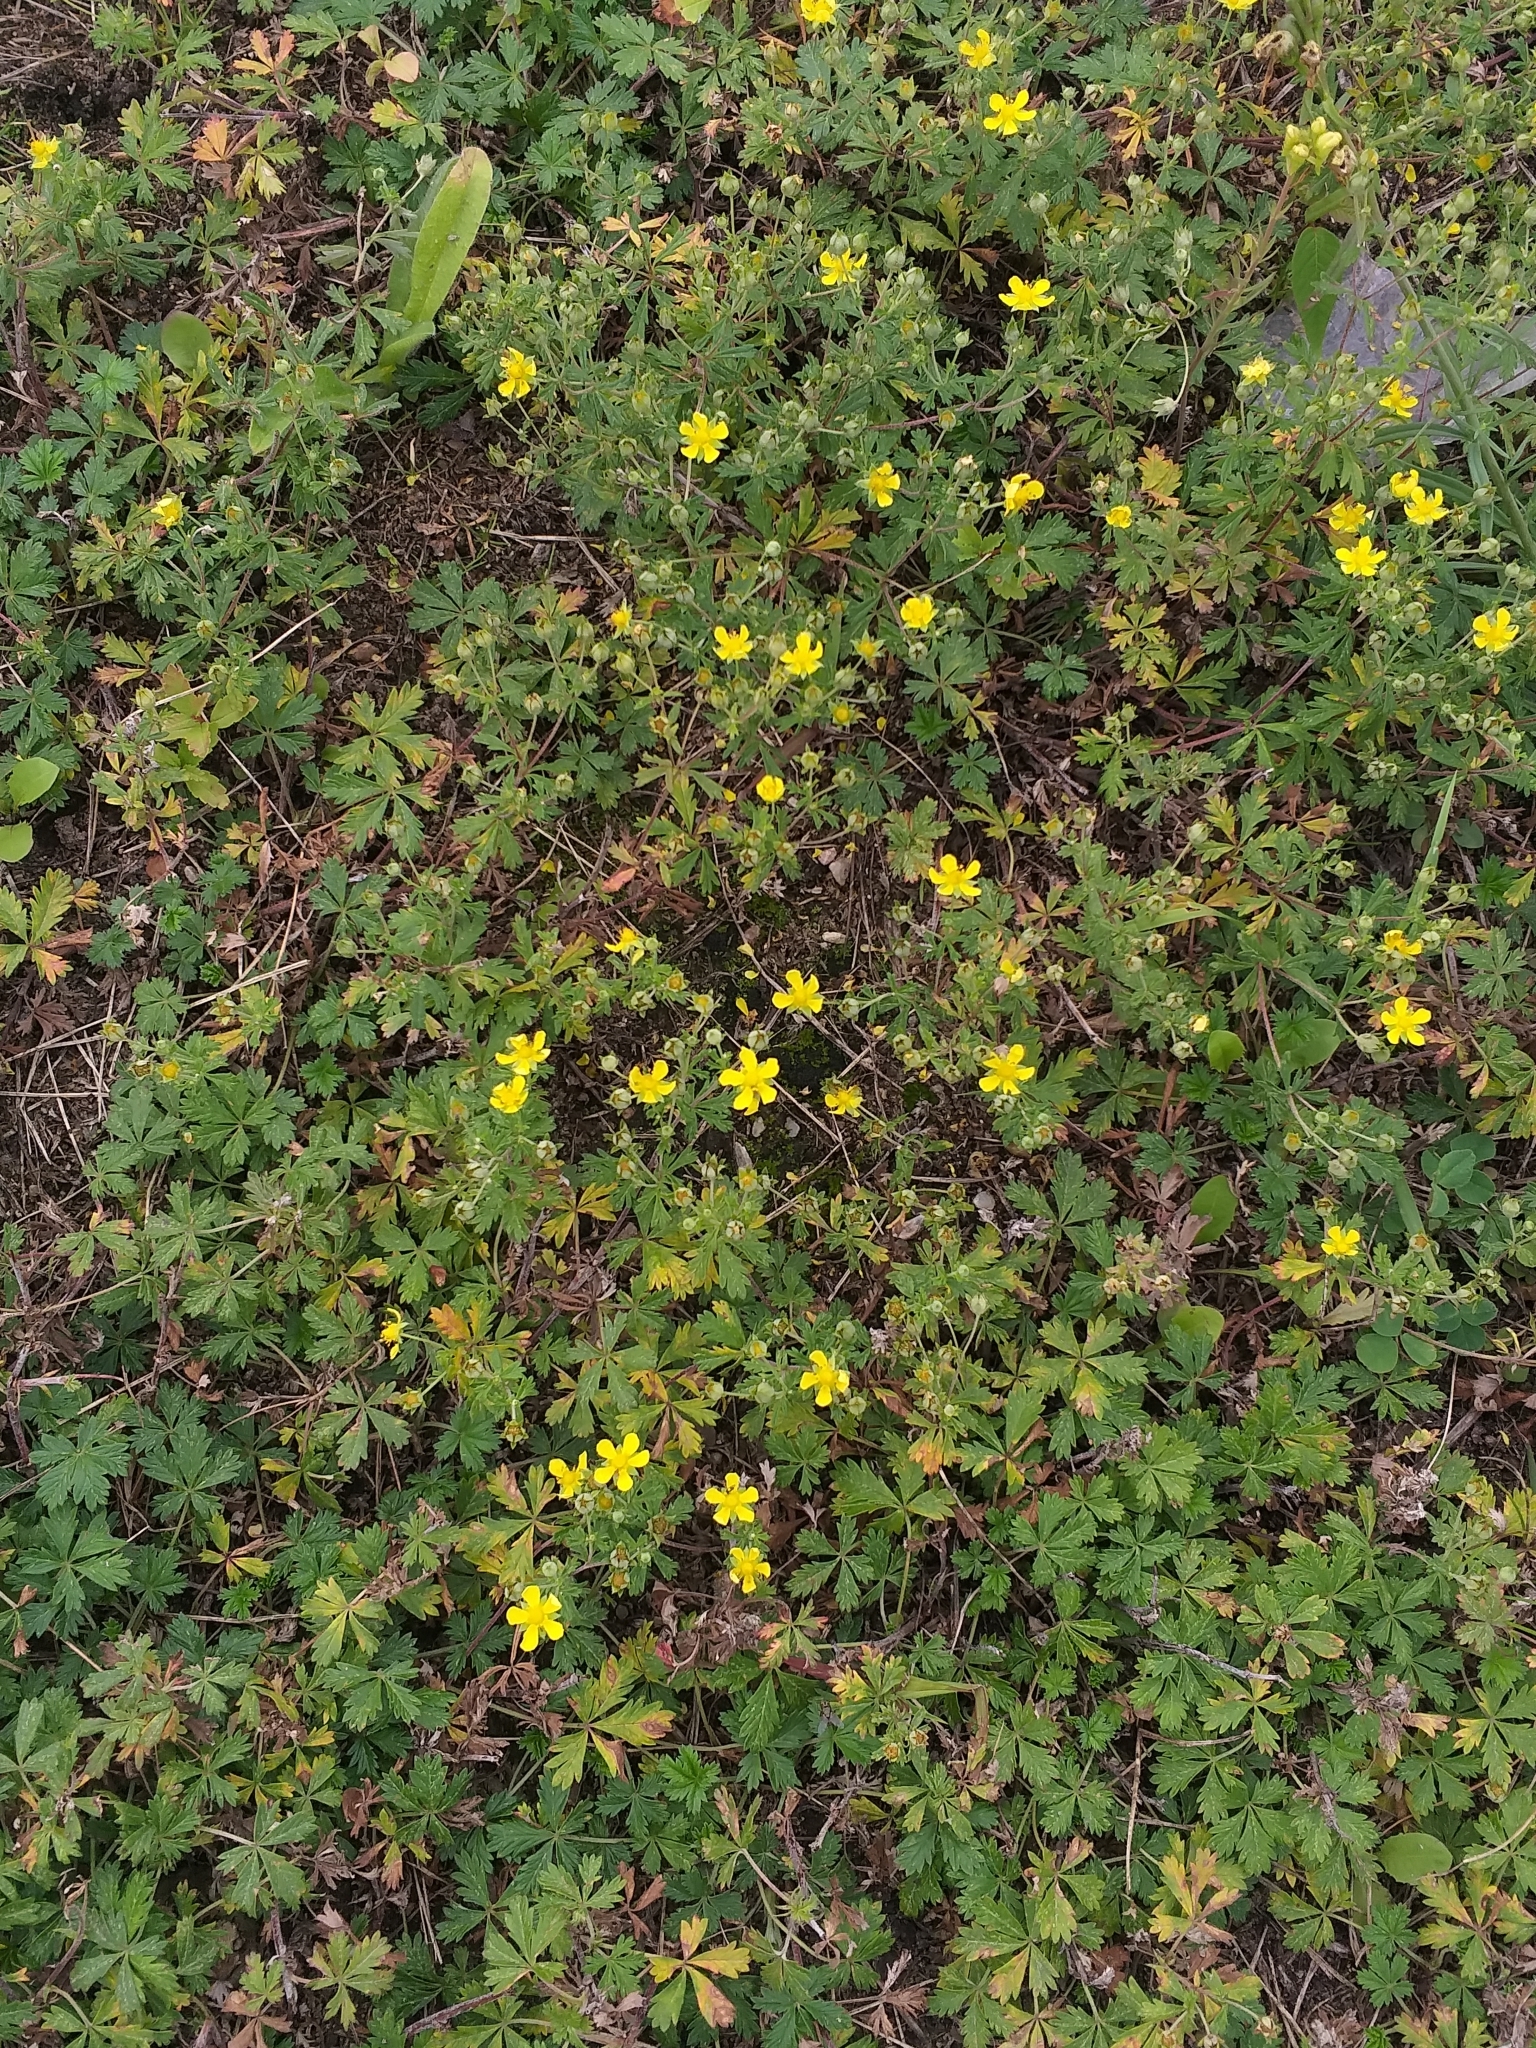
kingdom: Plantae
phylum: Tracheophyta
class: Magnoliopsida
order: Rosales
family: Rosaceae
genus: Potentilla
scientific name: Potentilla argentea
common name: Hoary cinquefoil
